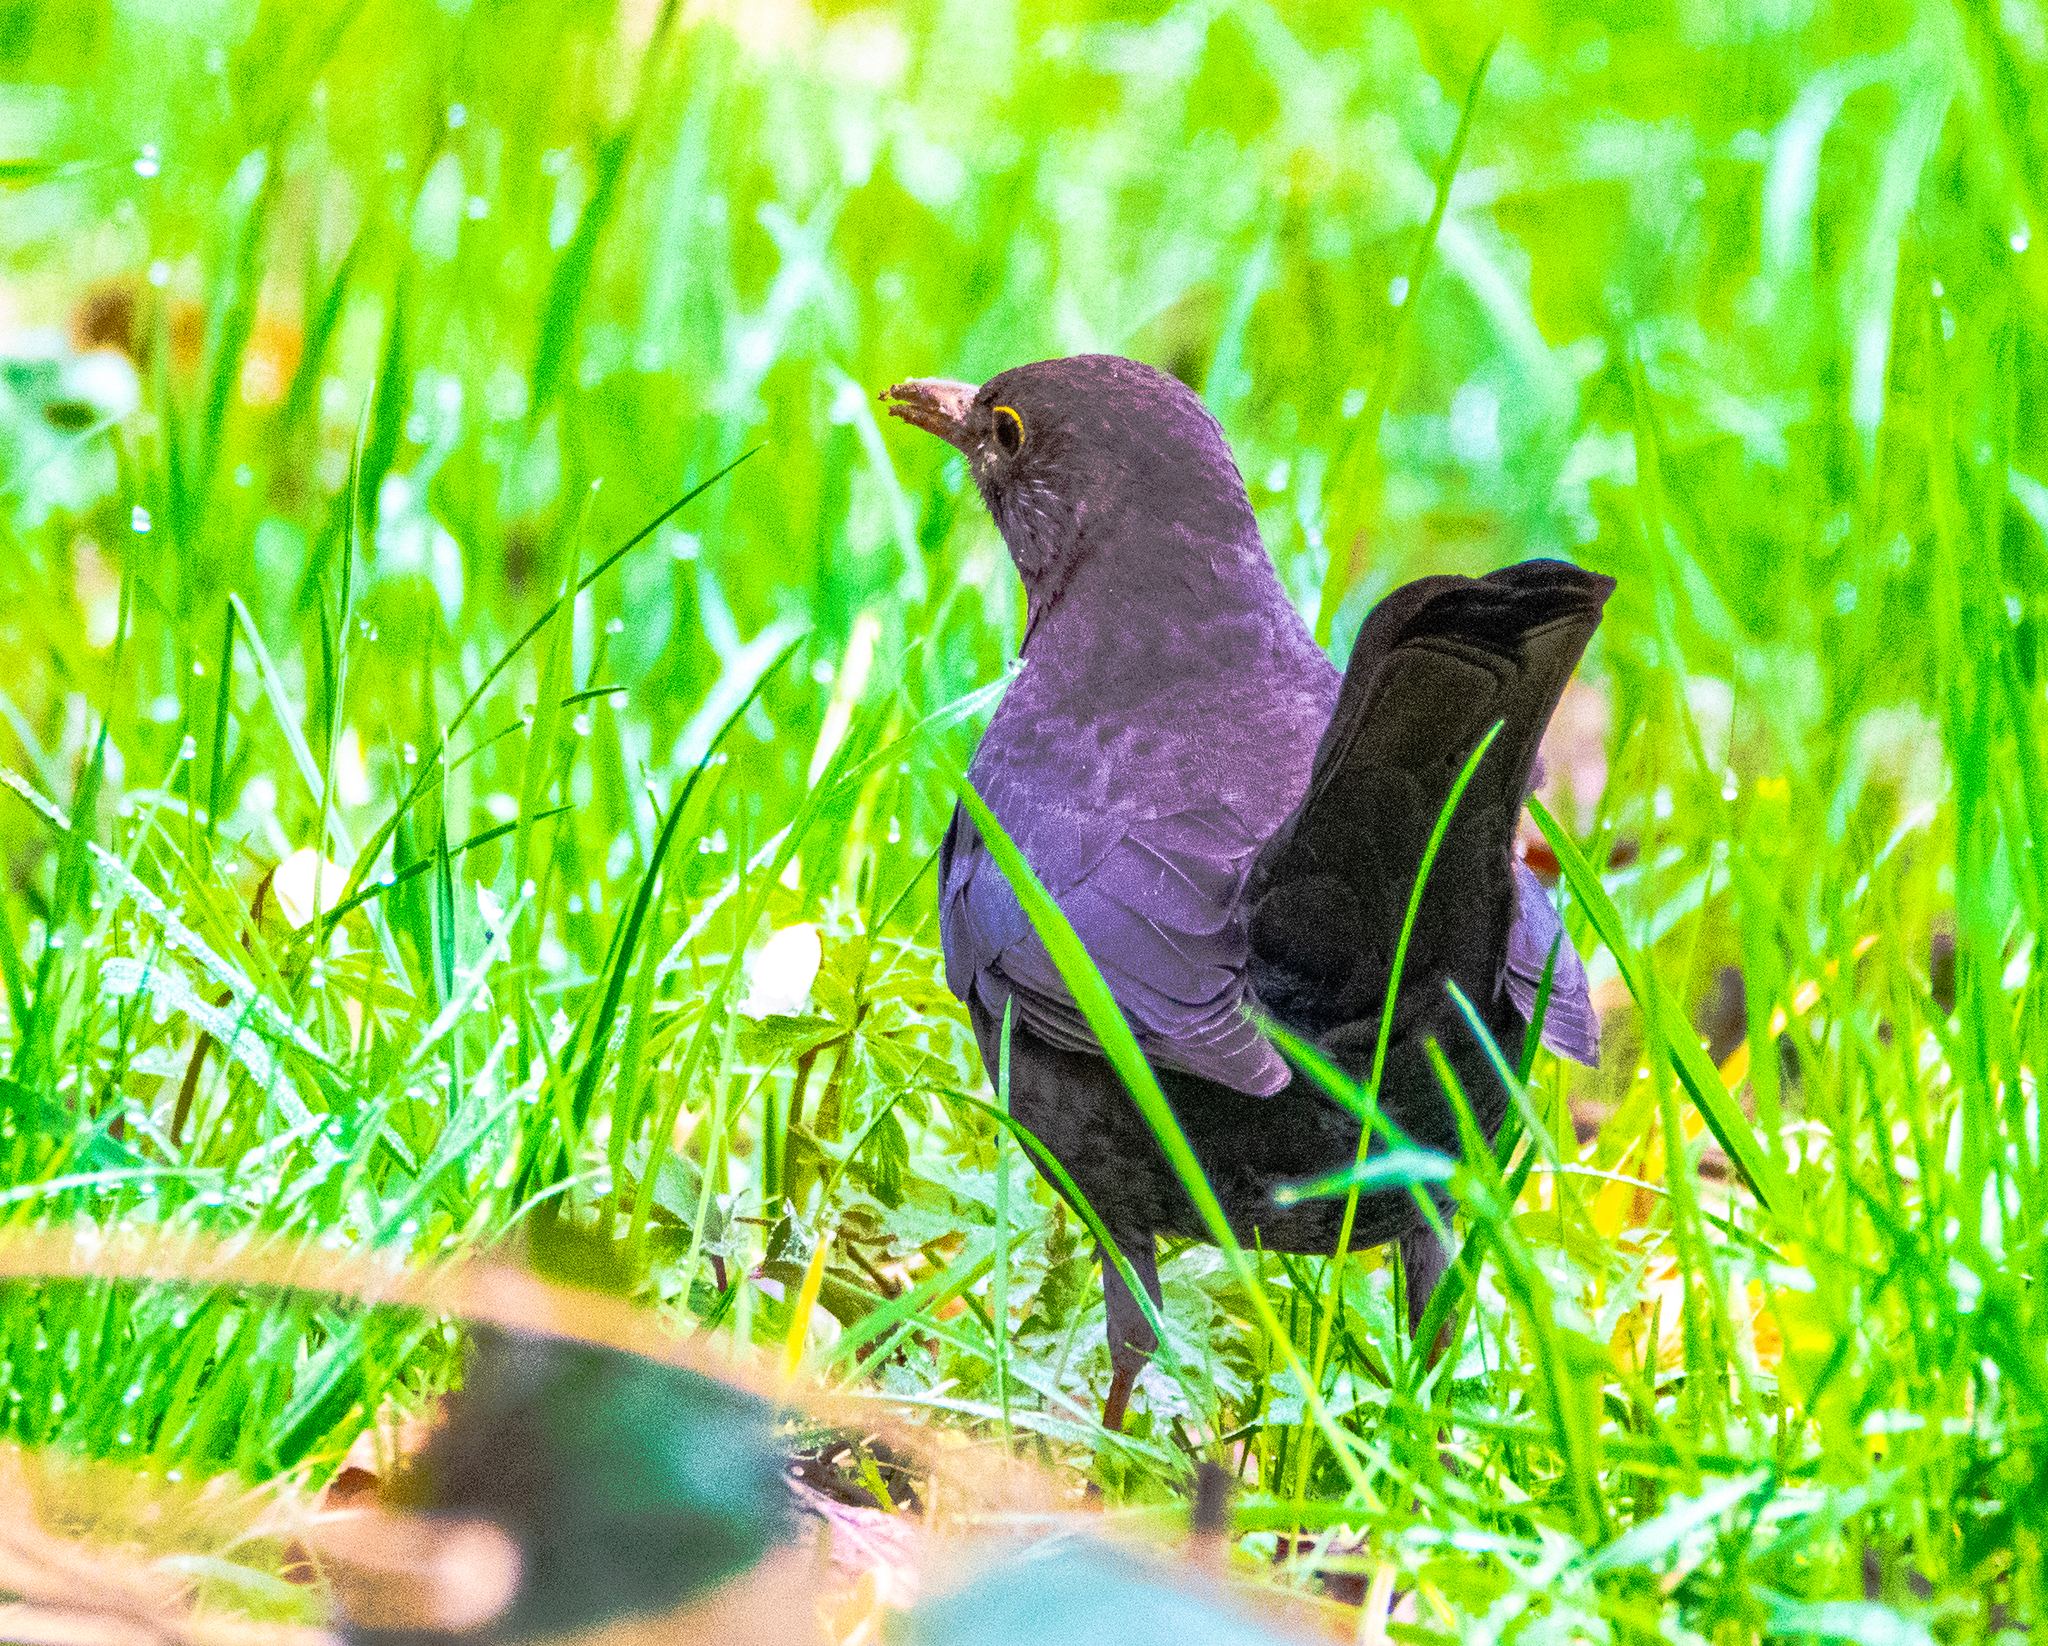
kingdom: Animalia
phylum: Chordata
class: Aves
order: Passeriformes
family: Turdidae
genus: Turdus
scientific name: Turdus merula
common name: Common blackbird
